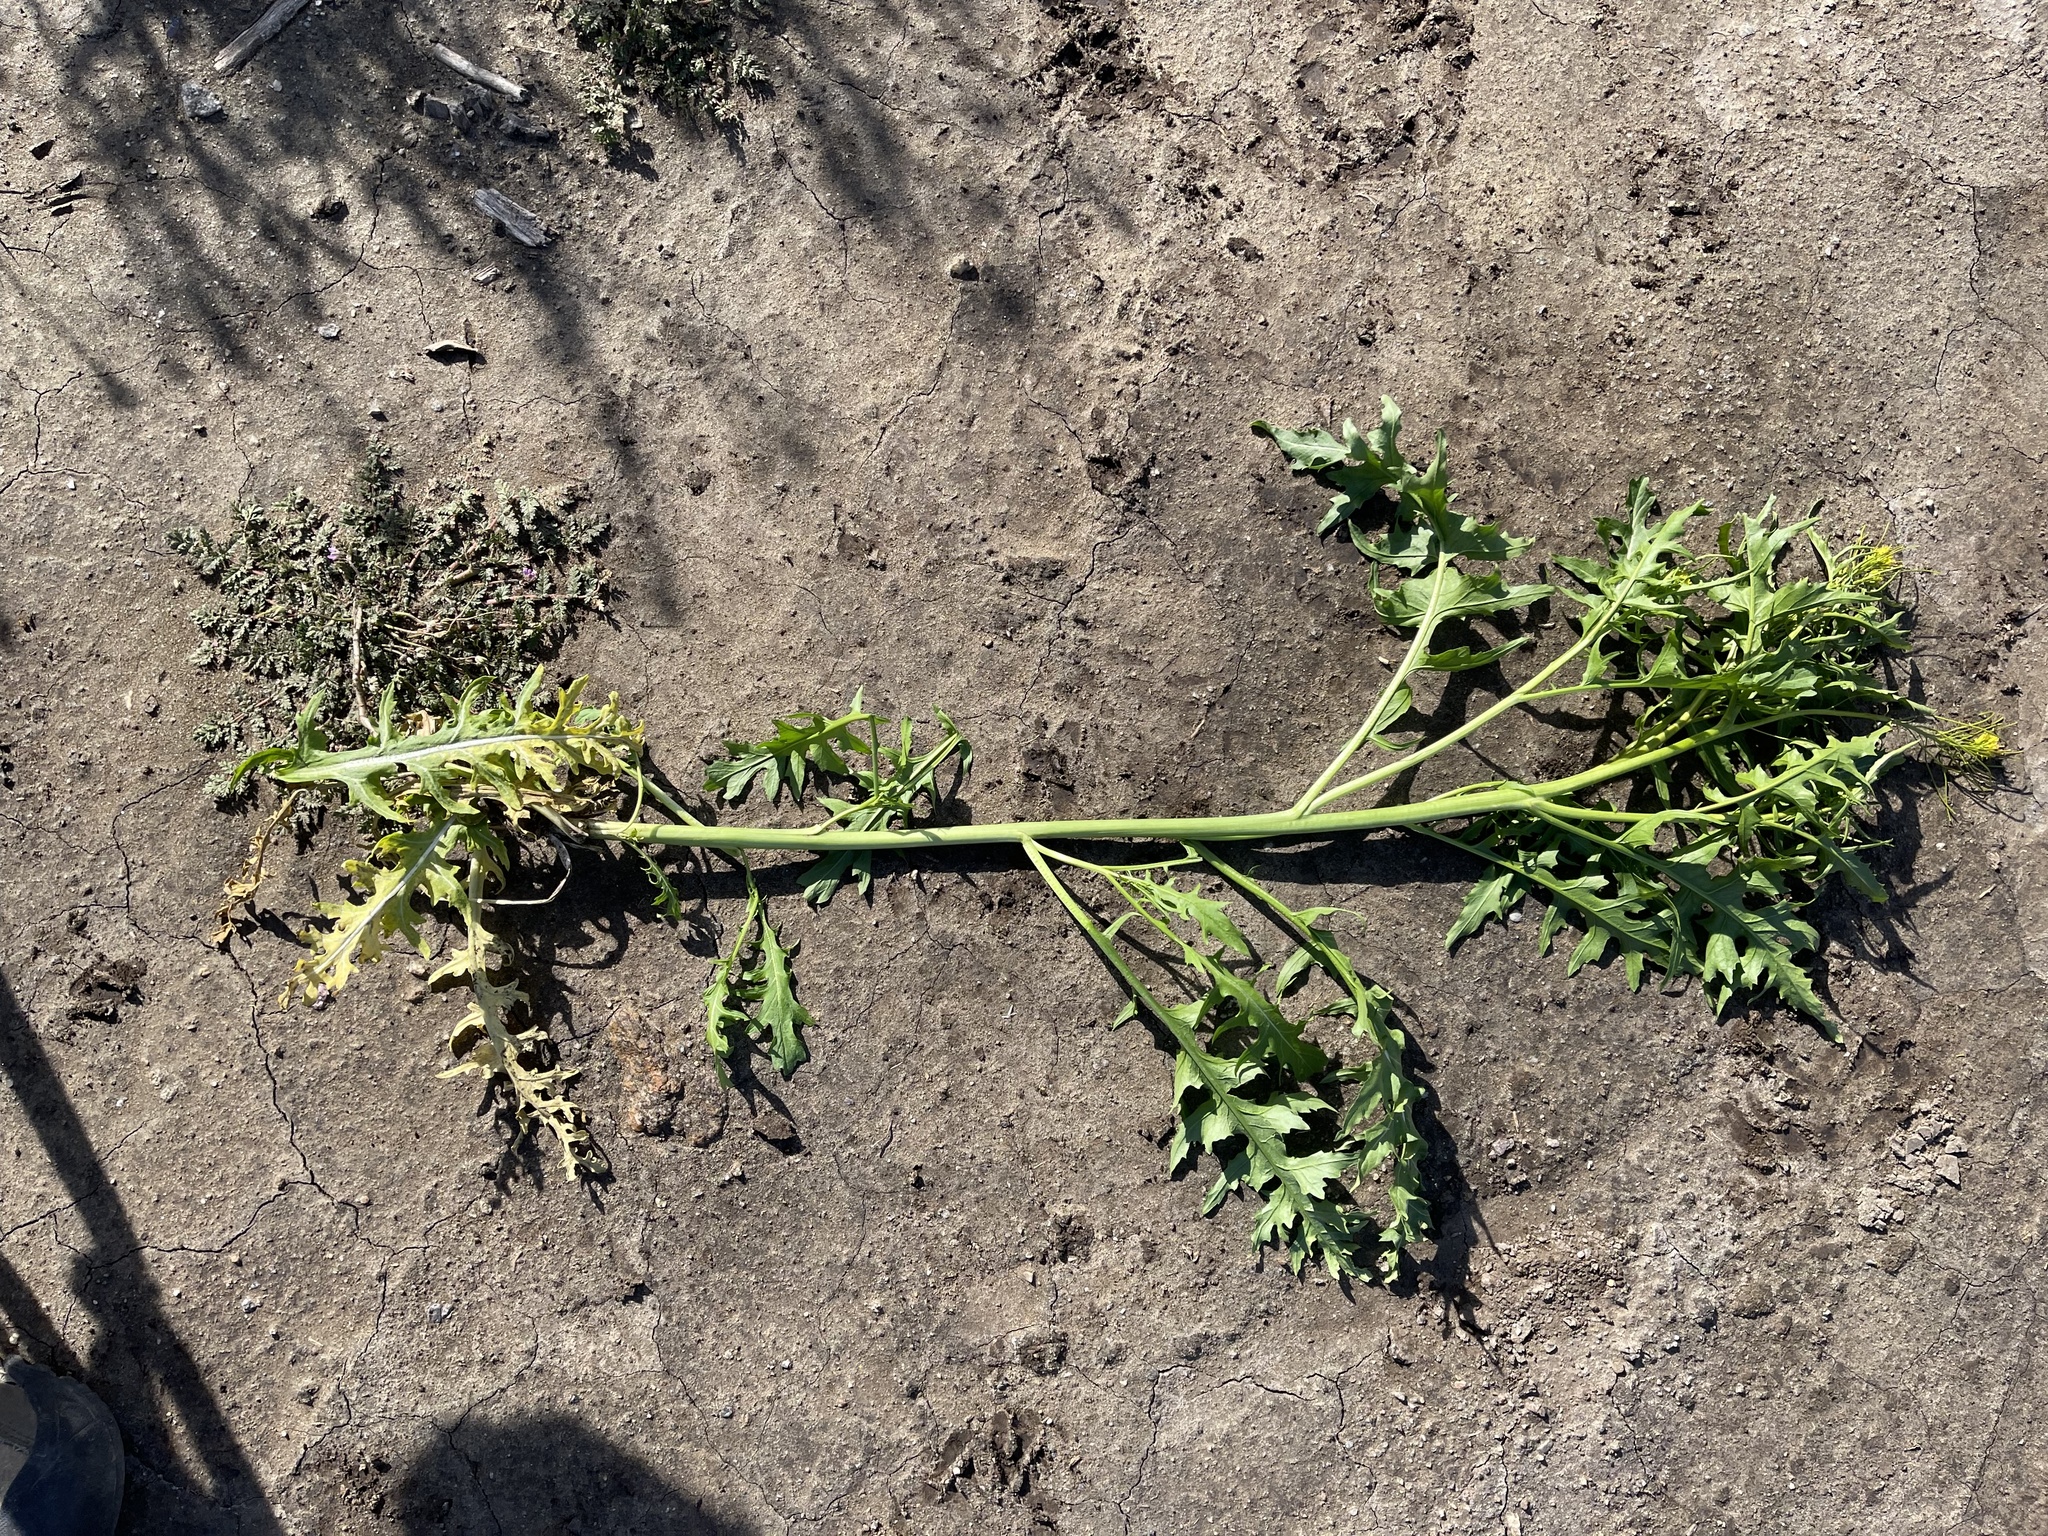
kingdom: Plantae
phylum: Tracheophyta
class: Magnoliopsida
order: Brassicales
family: Brassicaceae
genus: Sisymbrium
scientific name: Sisymbrium irio
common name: London rocket
